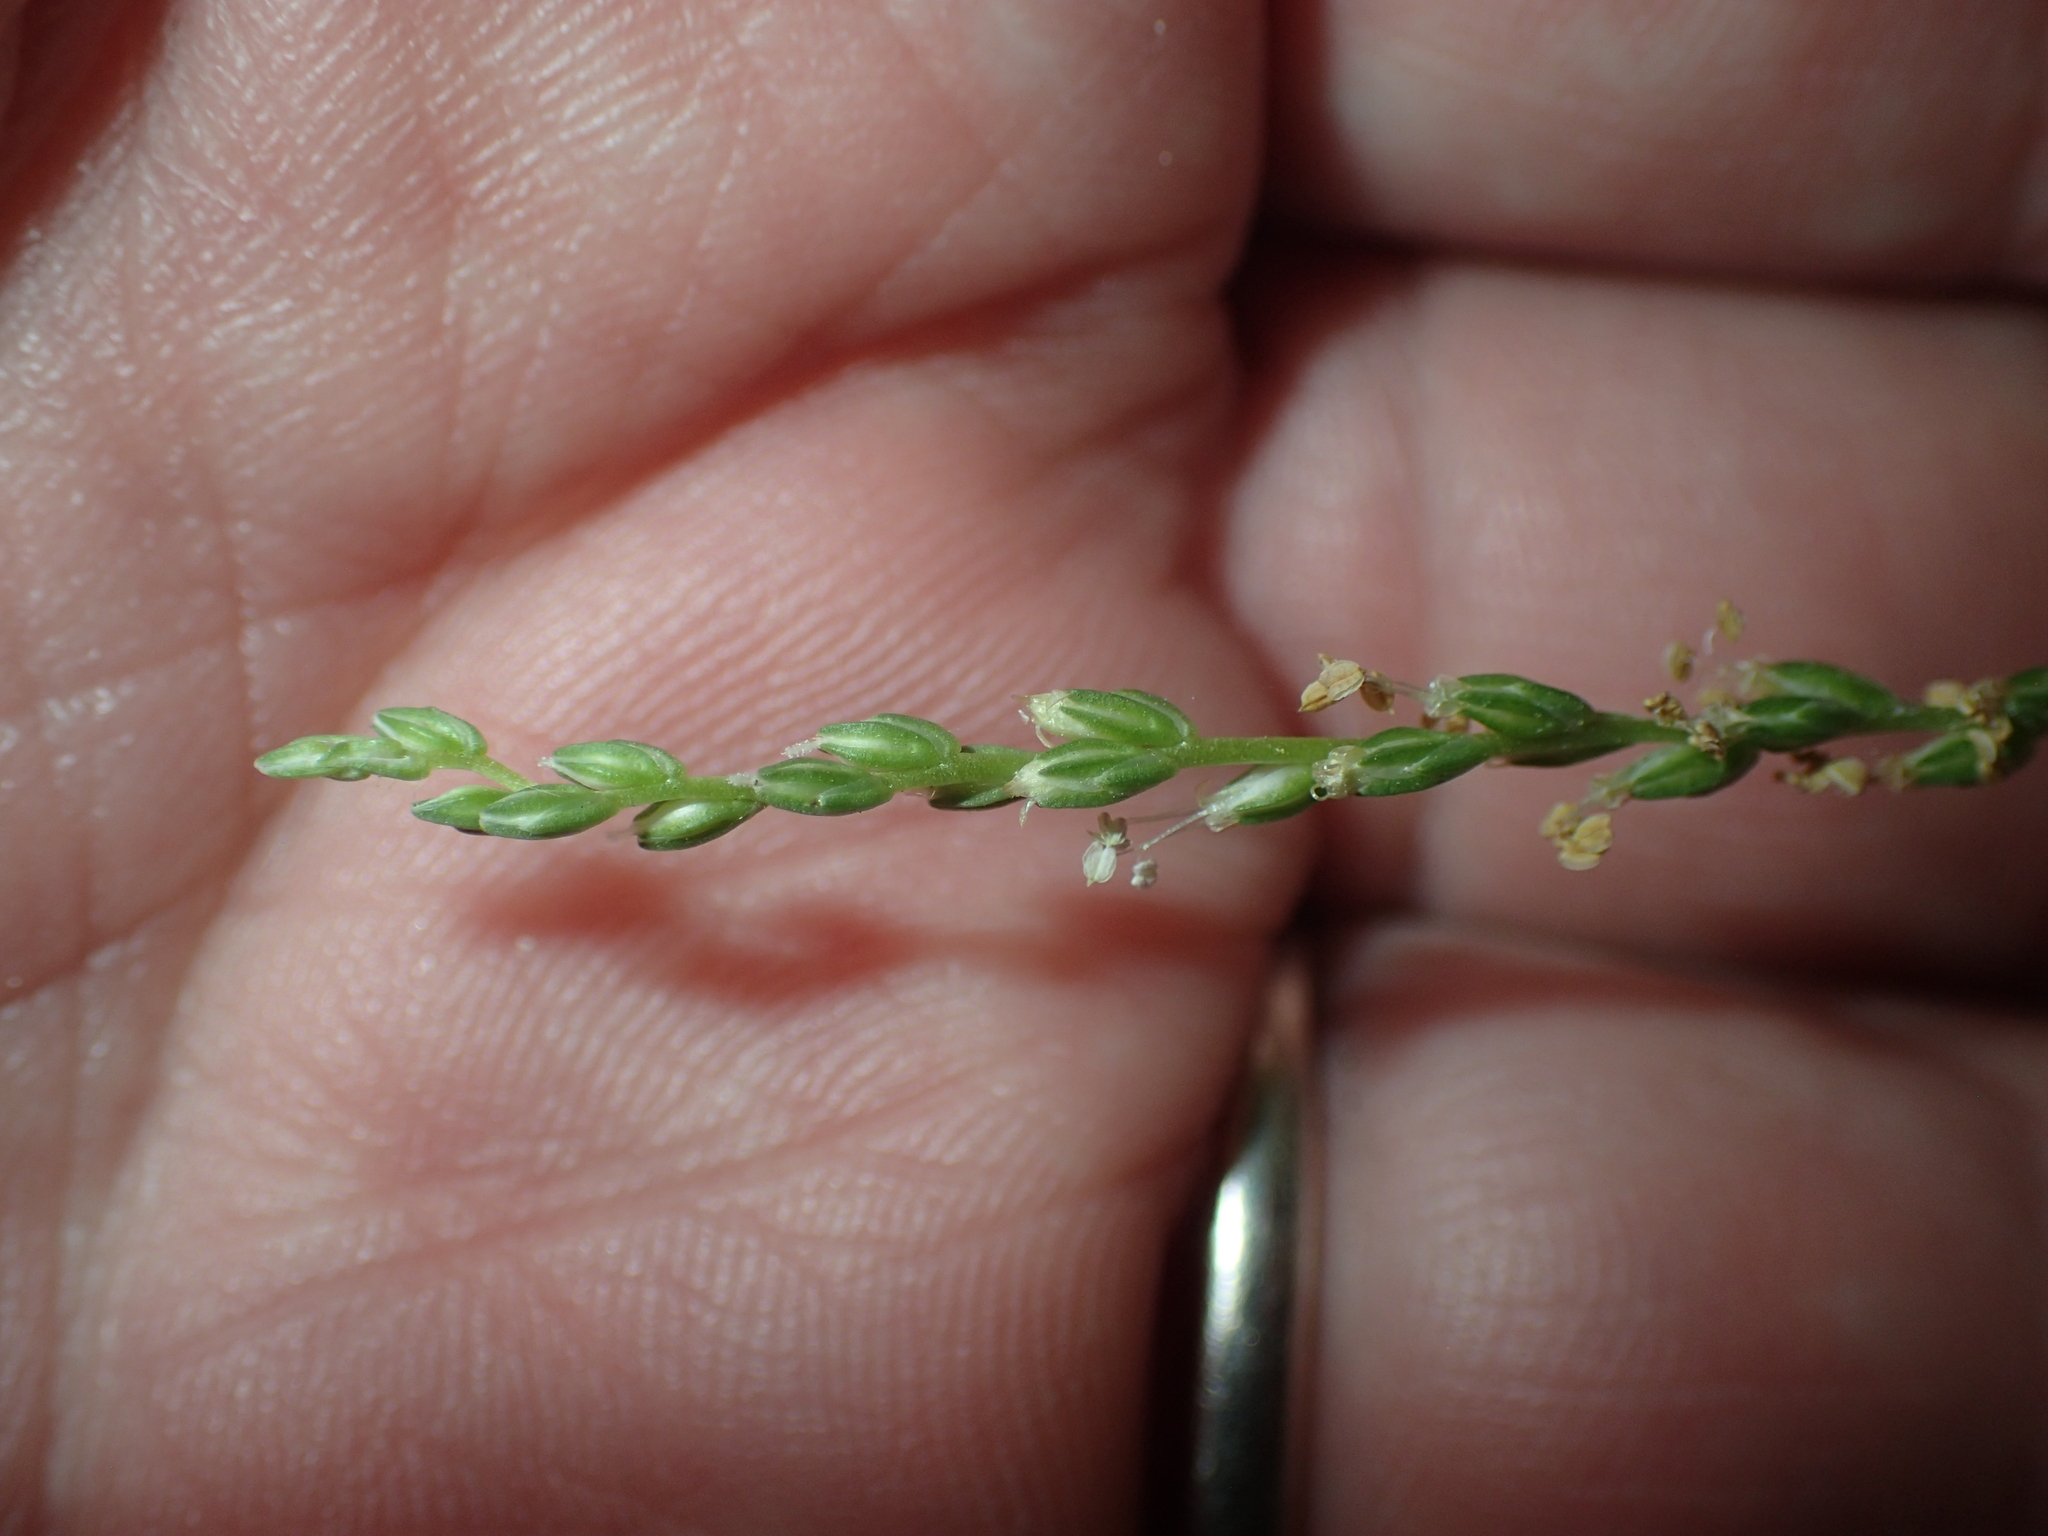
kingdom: Plantae
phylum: Tracheophyta
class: Magnoliopsida
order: Lamiales
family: Plantaginaceae
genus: Plantago
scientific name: Plantago rugelii
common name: American plantain
